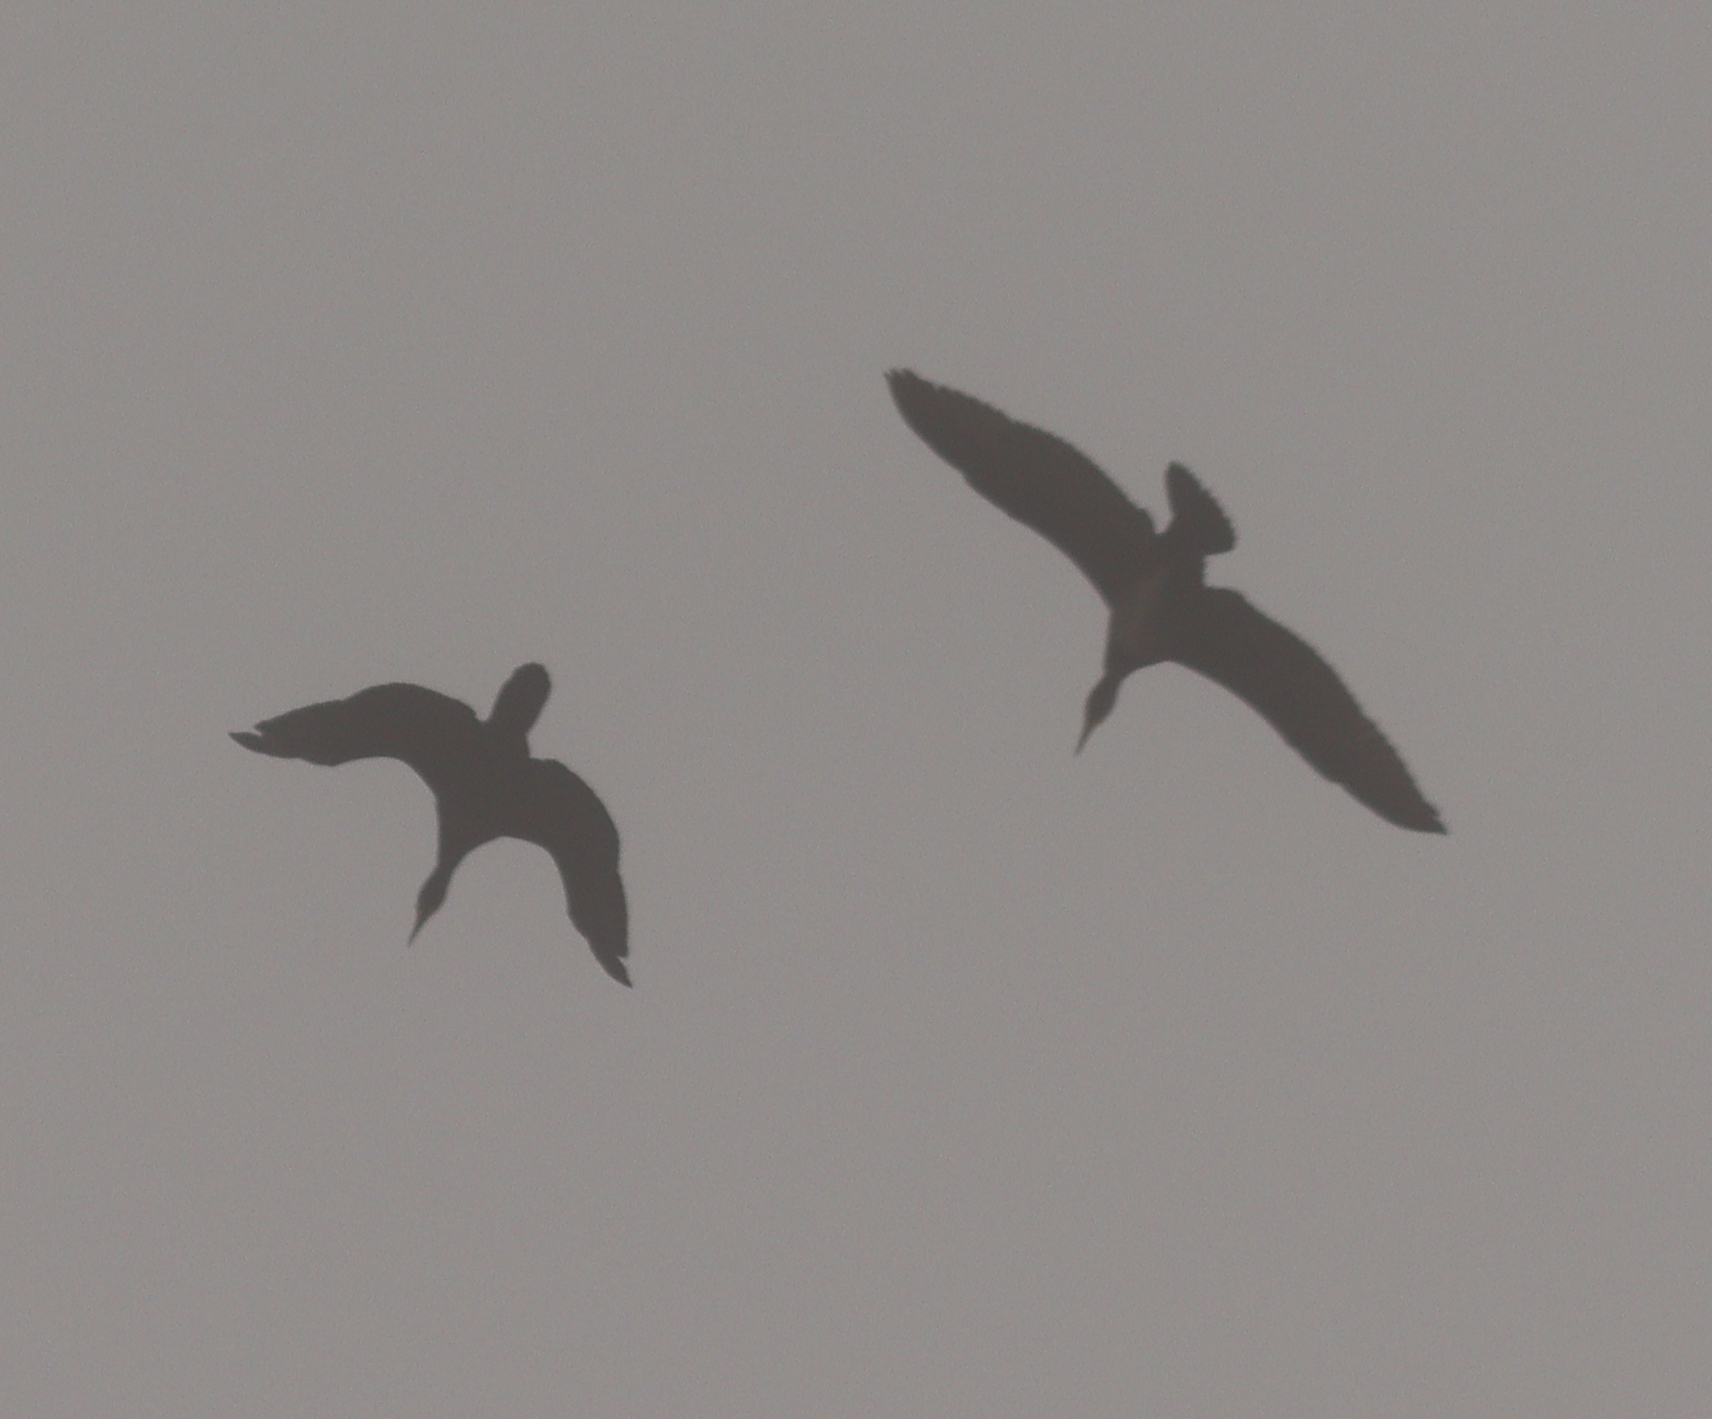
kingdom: Animalia
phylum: Chordata
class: Aves
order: Suliformes
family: Phalacrocoracidae
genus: Phalacrocorax
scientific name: Phalacrocorax carbo
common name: Great cormorant
